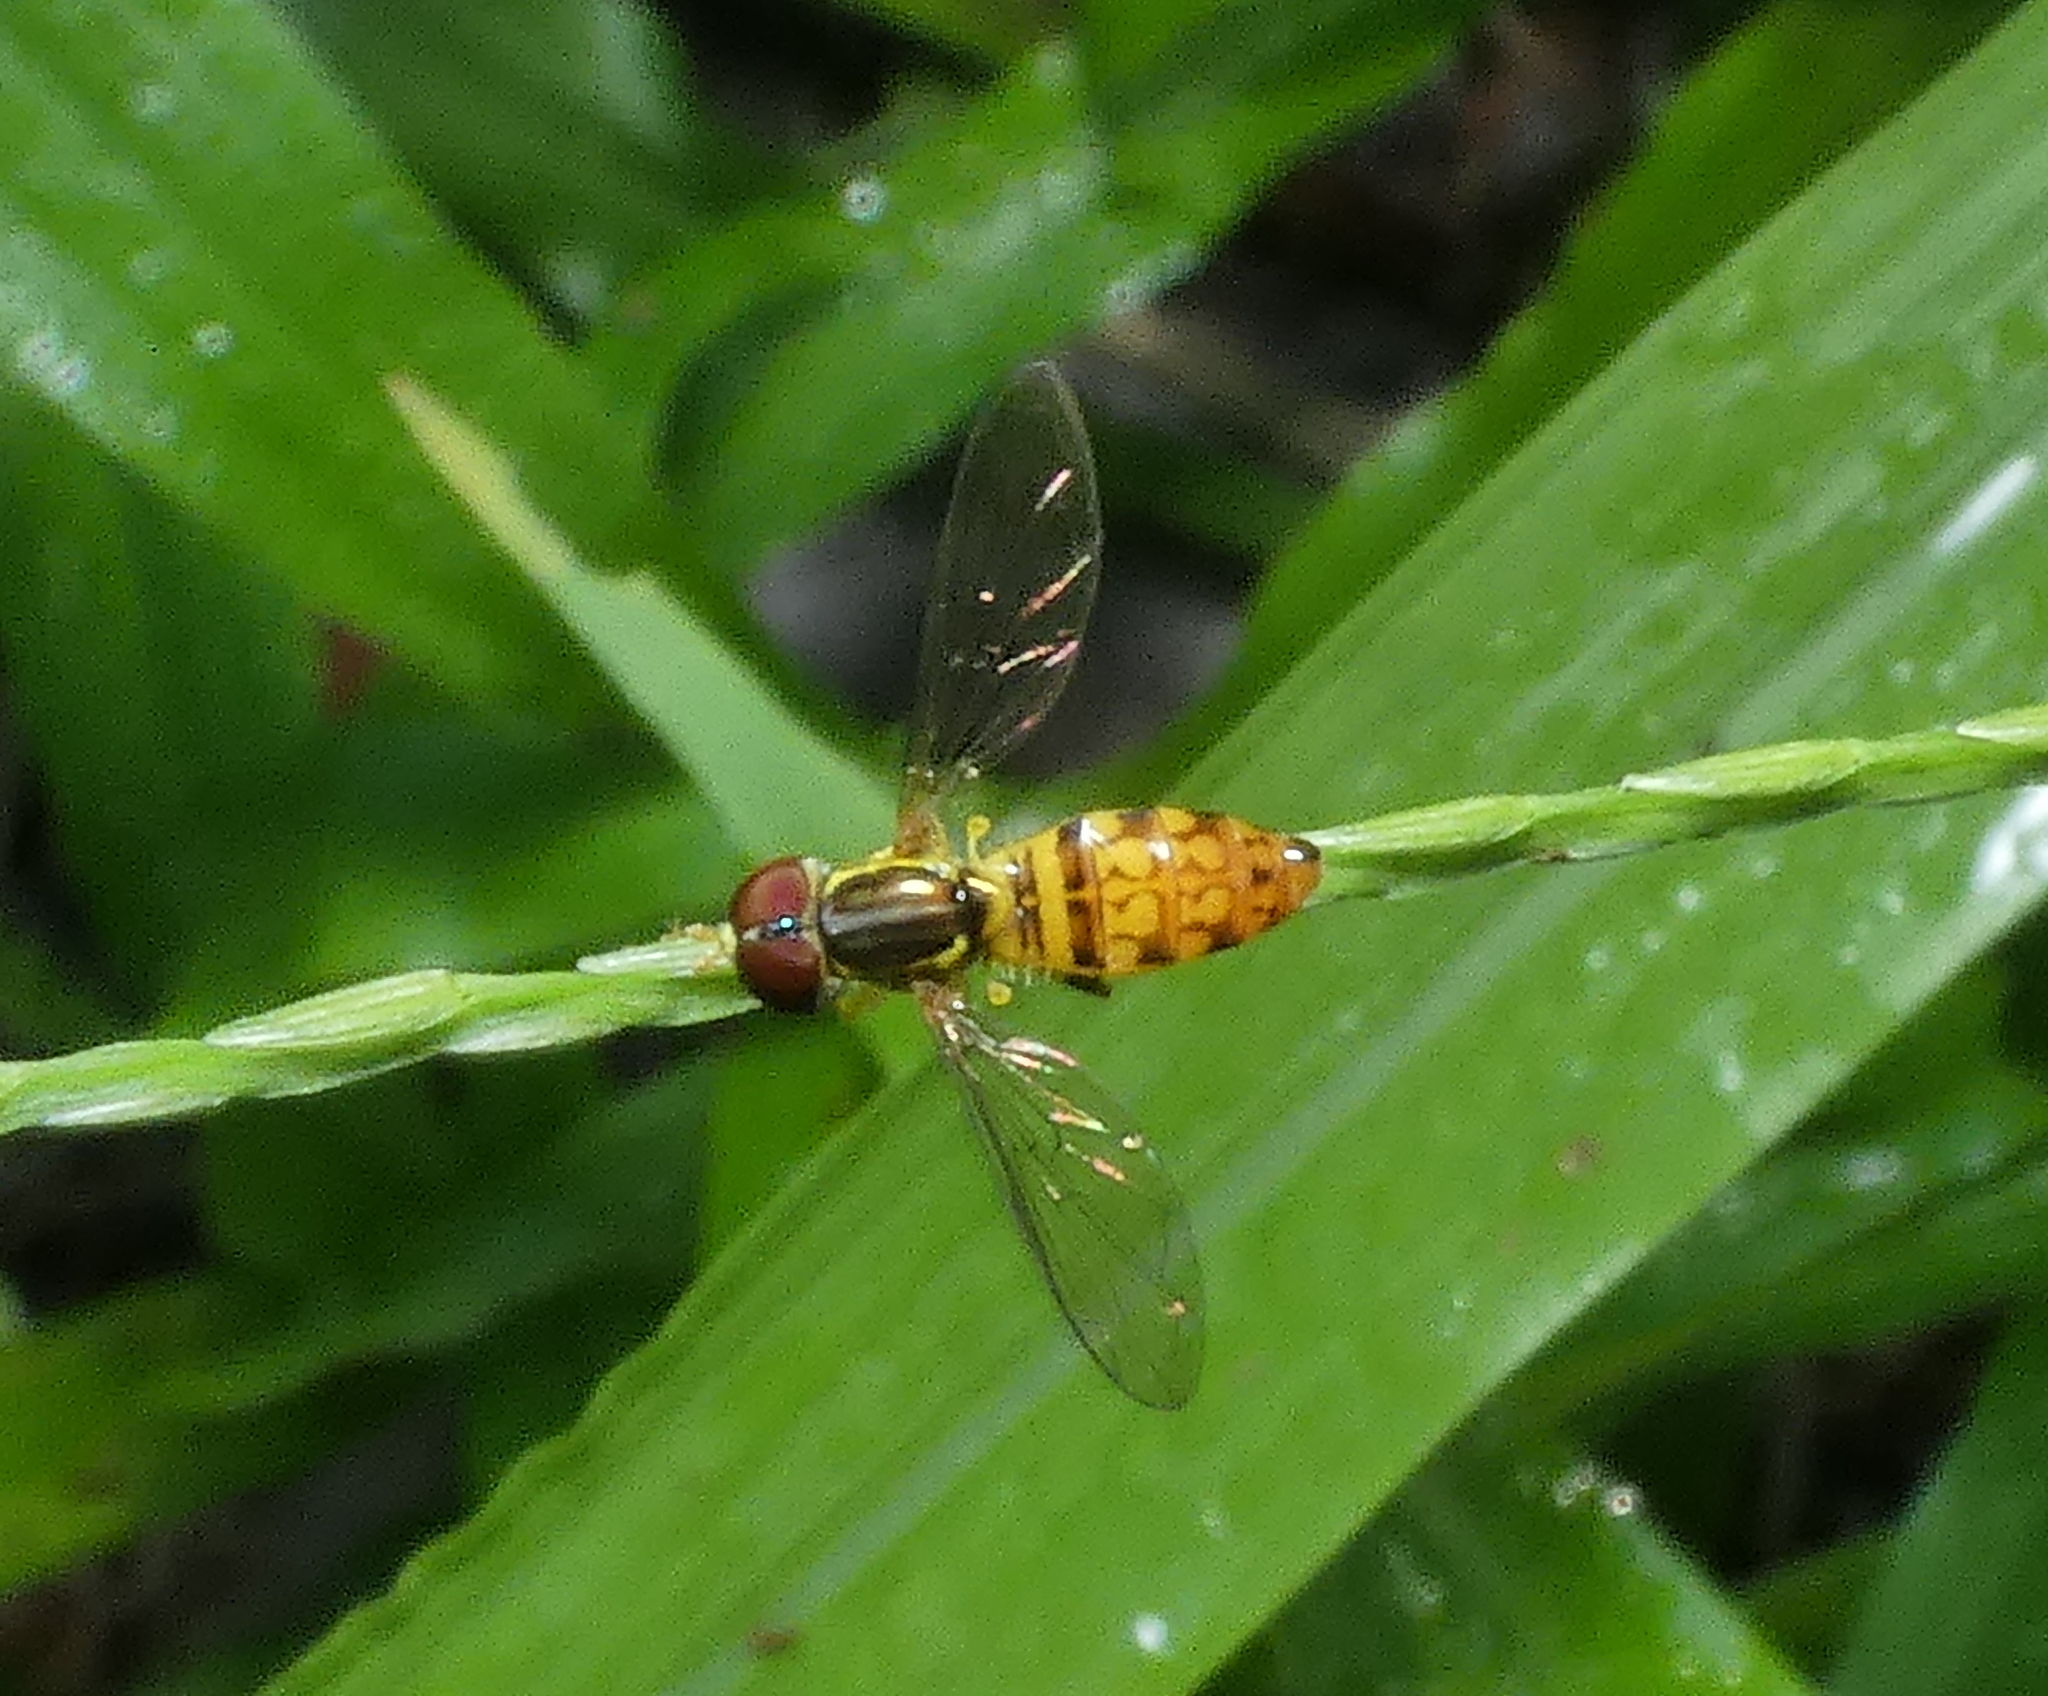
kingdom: Animalia
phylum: Arthropoda
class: Insecta
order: Diptera
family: Syrphidae
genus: Toxomerus
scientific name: Toxomerus pictus
